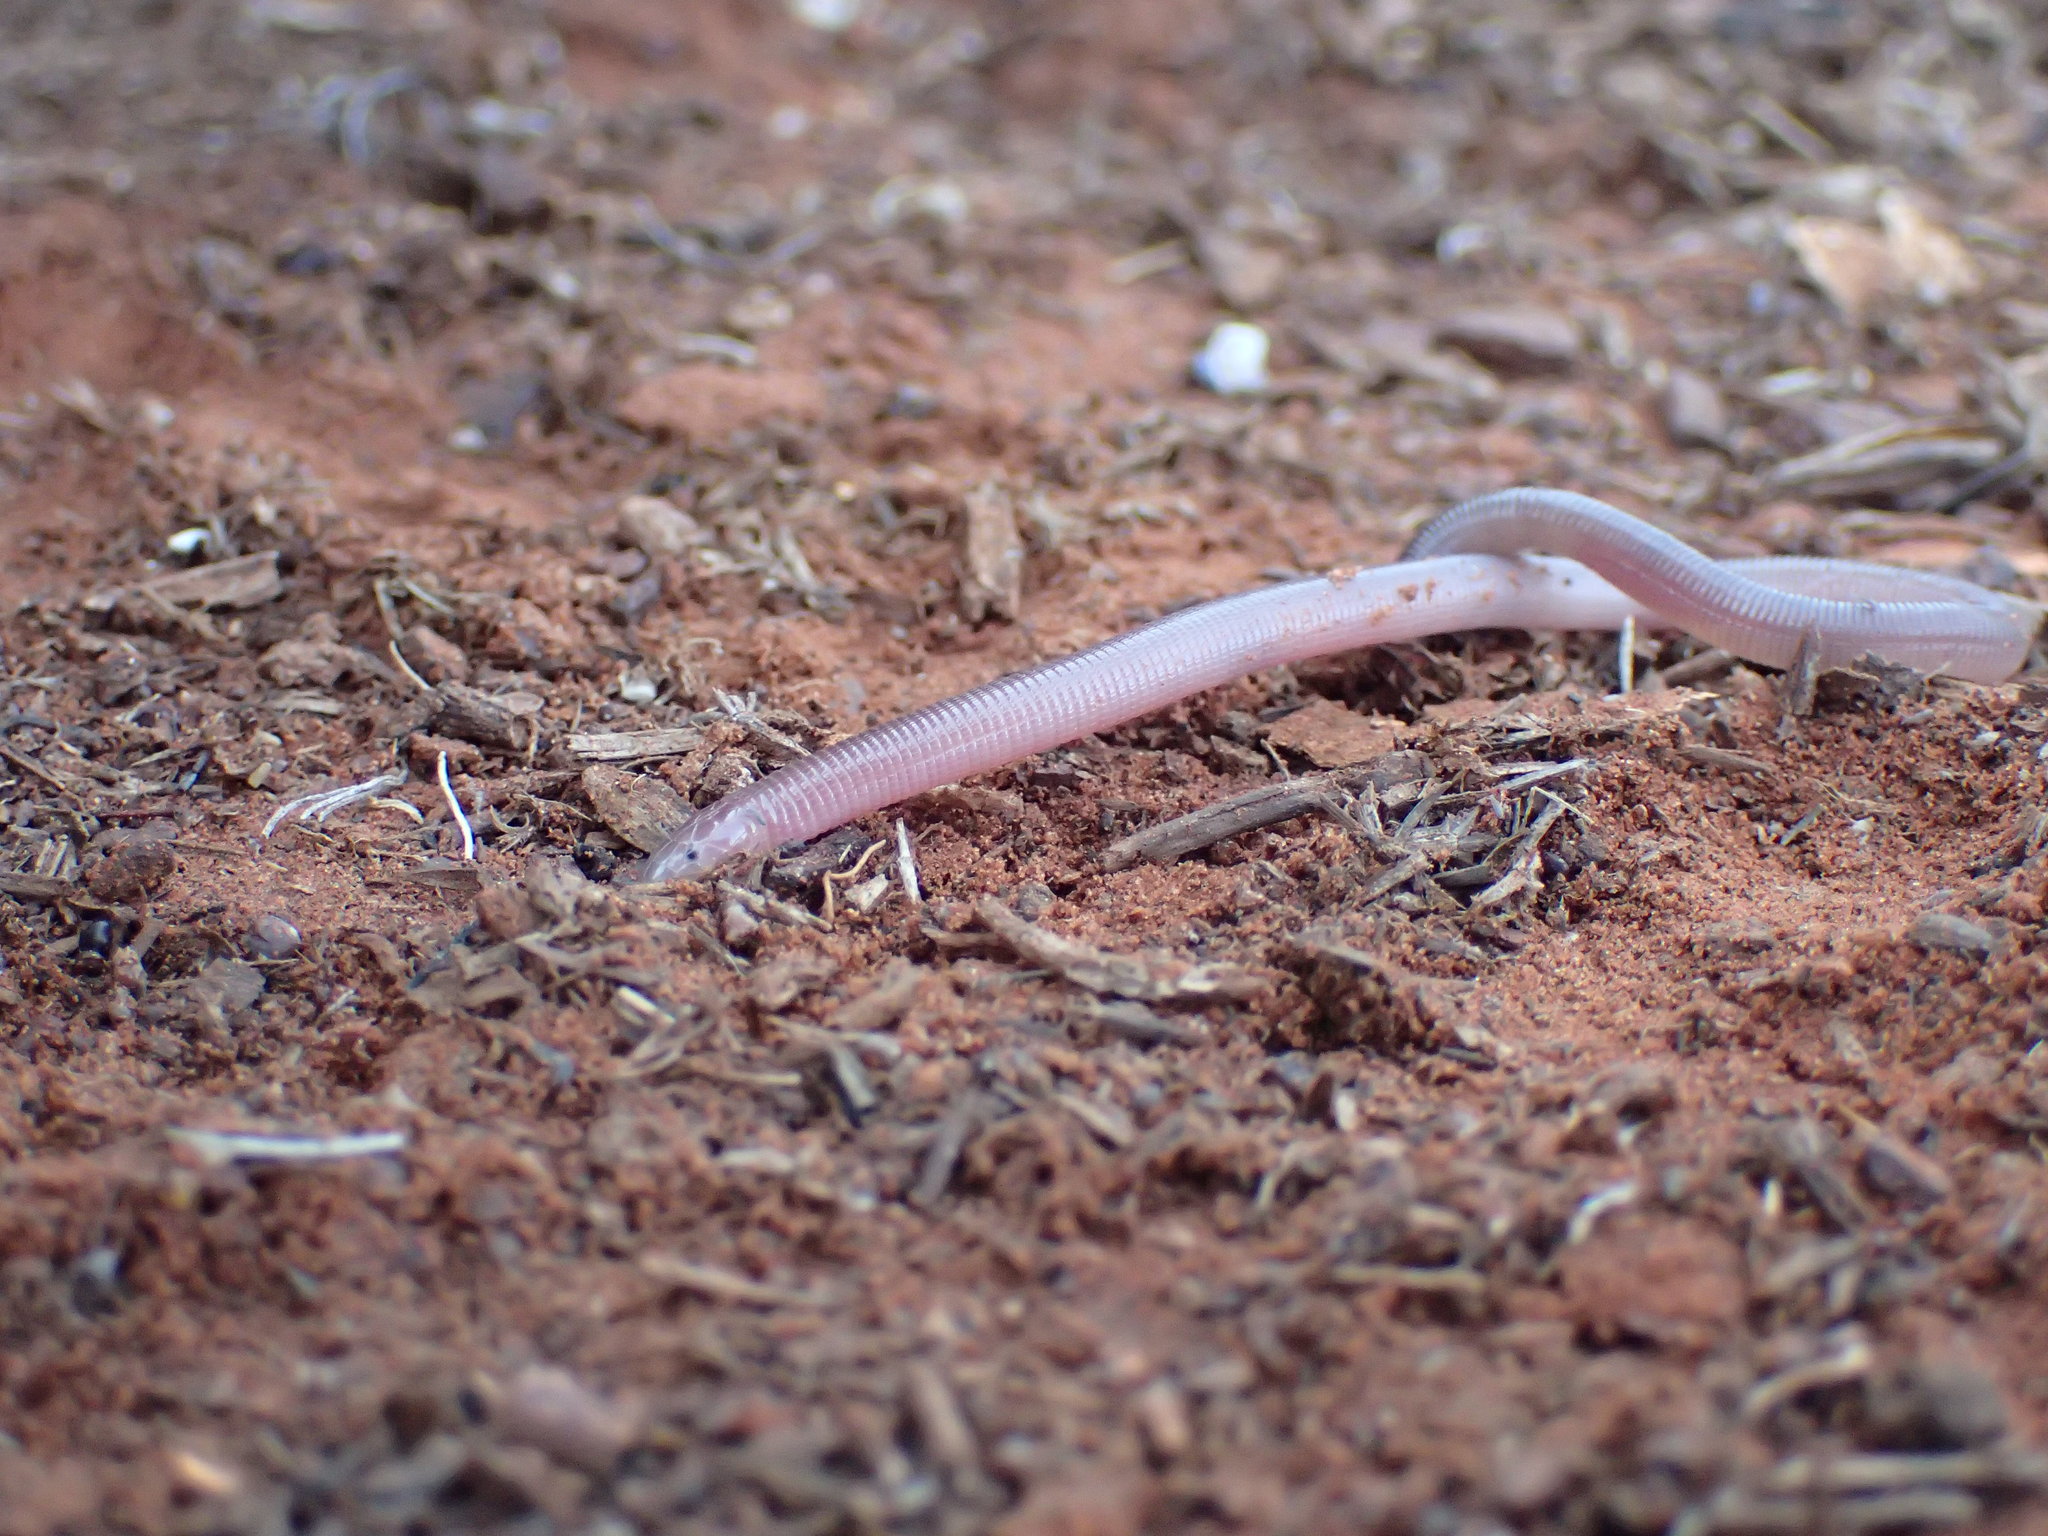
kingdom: Animalia
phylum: Chordata
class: Squamata
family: Amphisbaenidae
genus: Zygaspis
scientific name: Zygaspis quadrifrons
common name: Kalahari dwarf worm lizard
